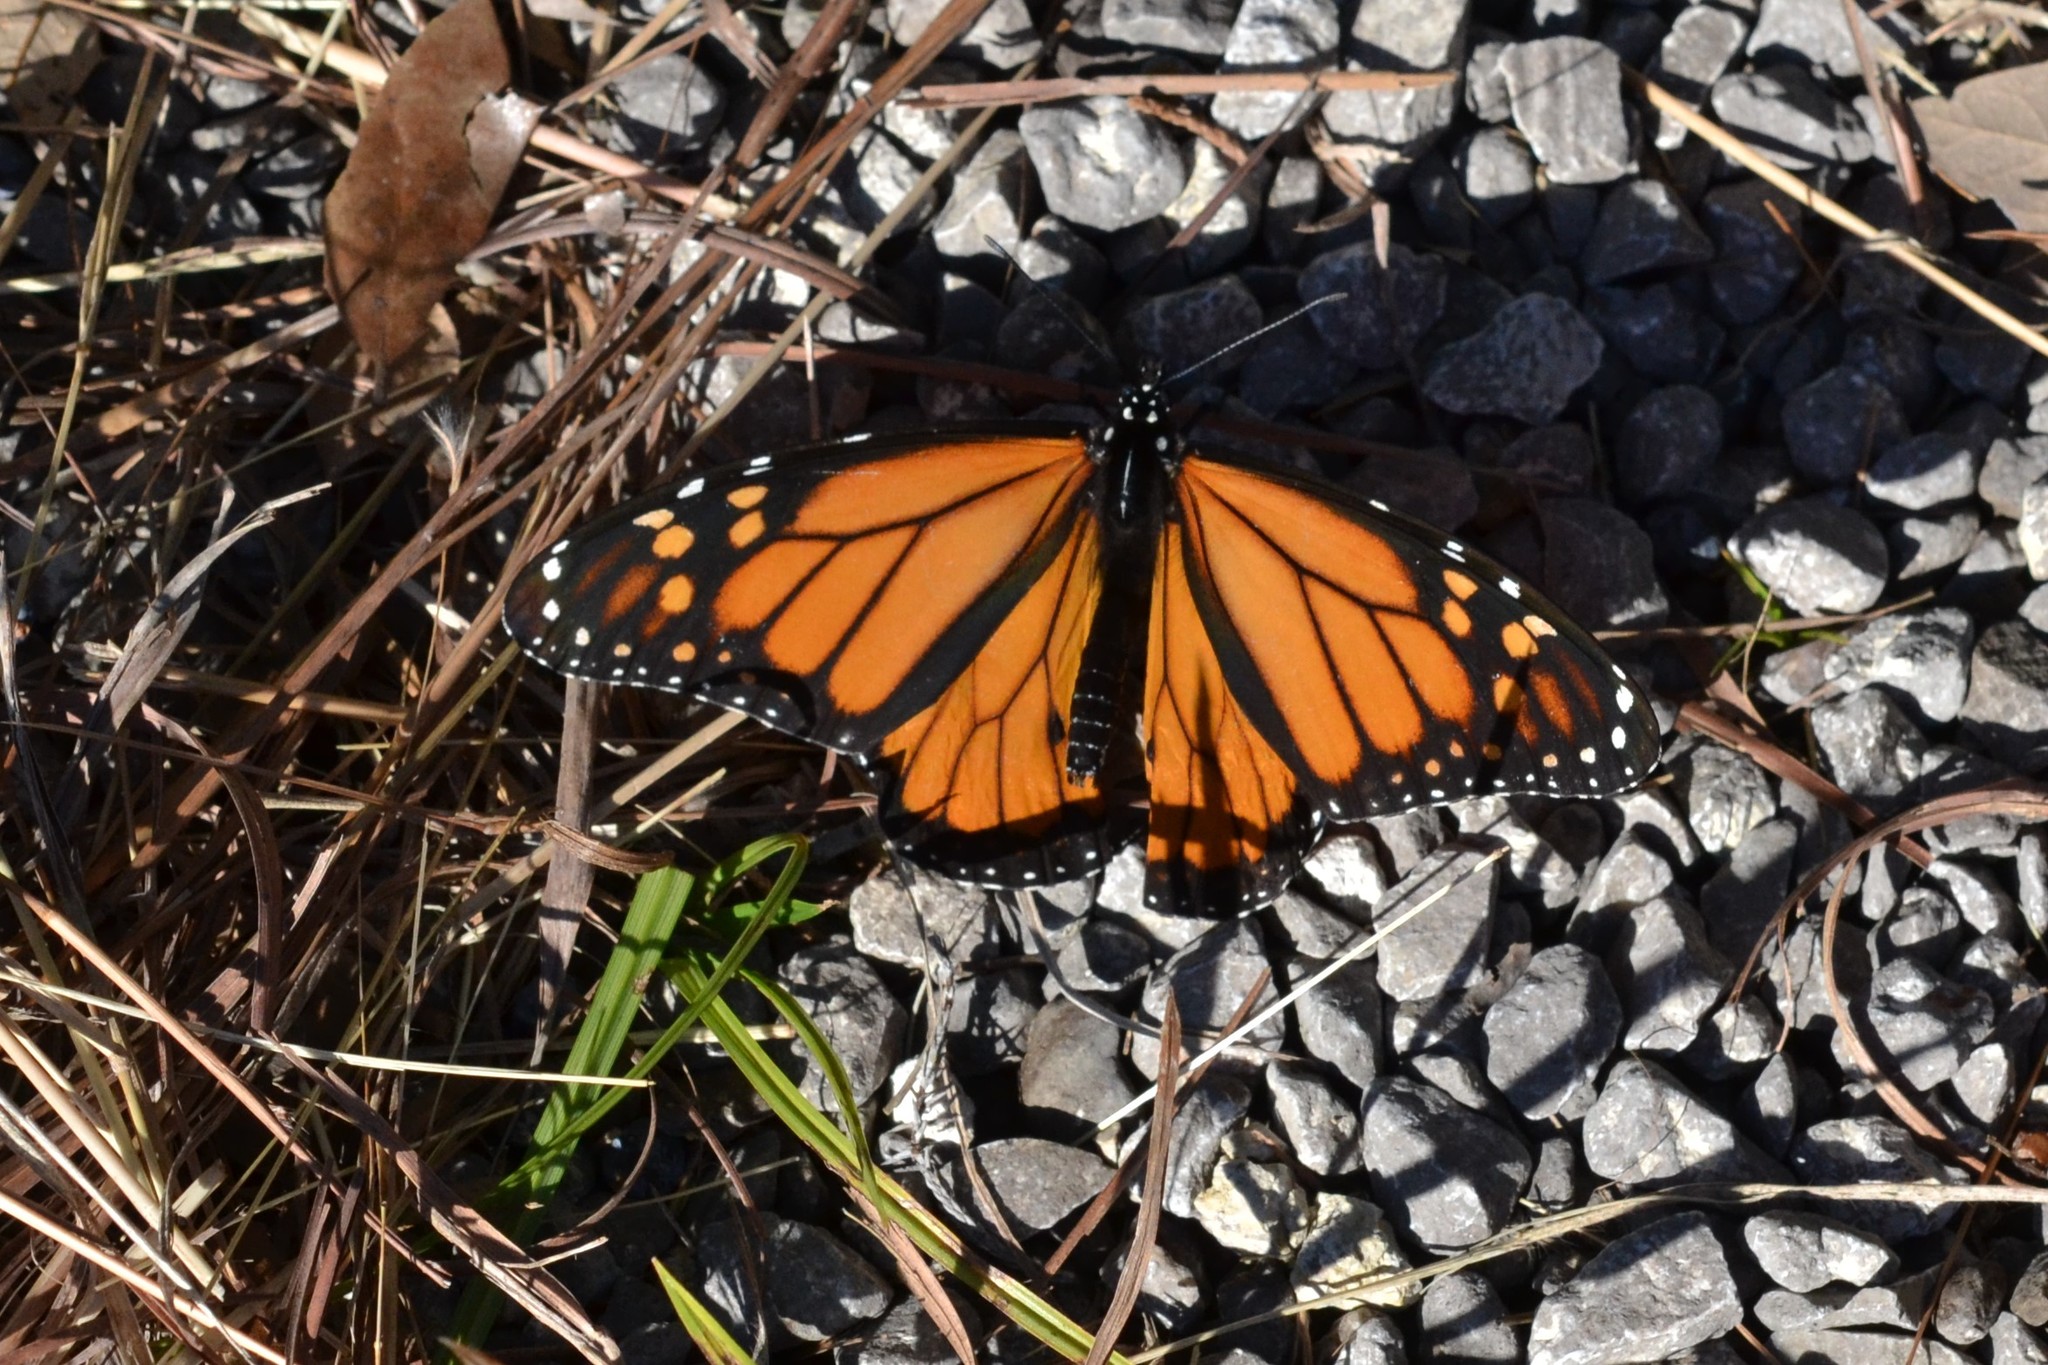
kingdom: Animalia
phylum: Arthropoda
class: Insecta
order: Lepidoptera
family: Nymphalidae
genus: Danaus
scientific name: Danaus plexippus
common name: Monarch
